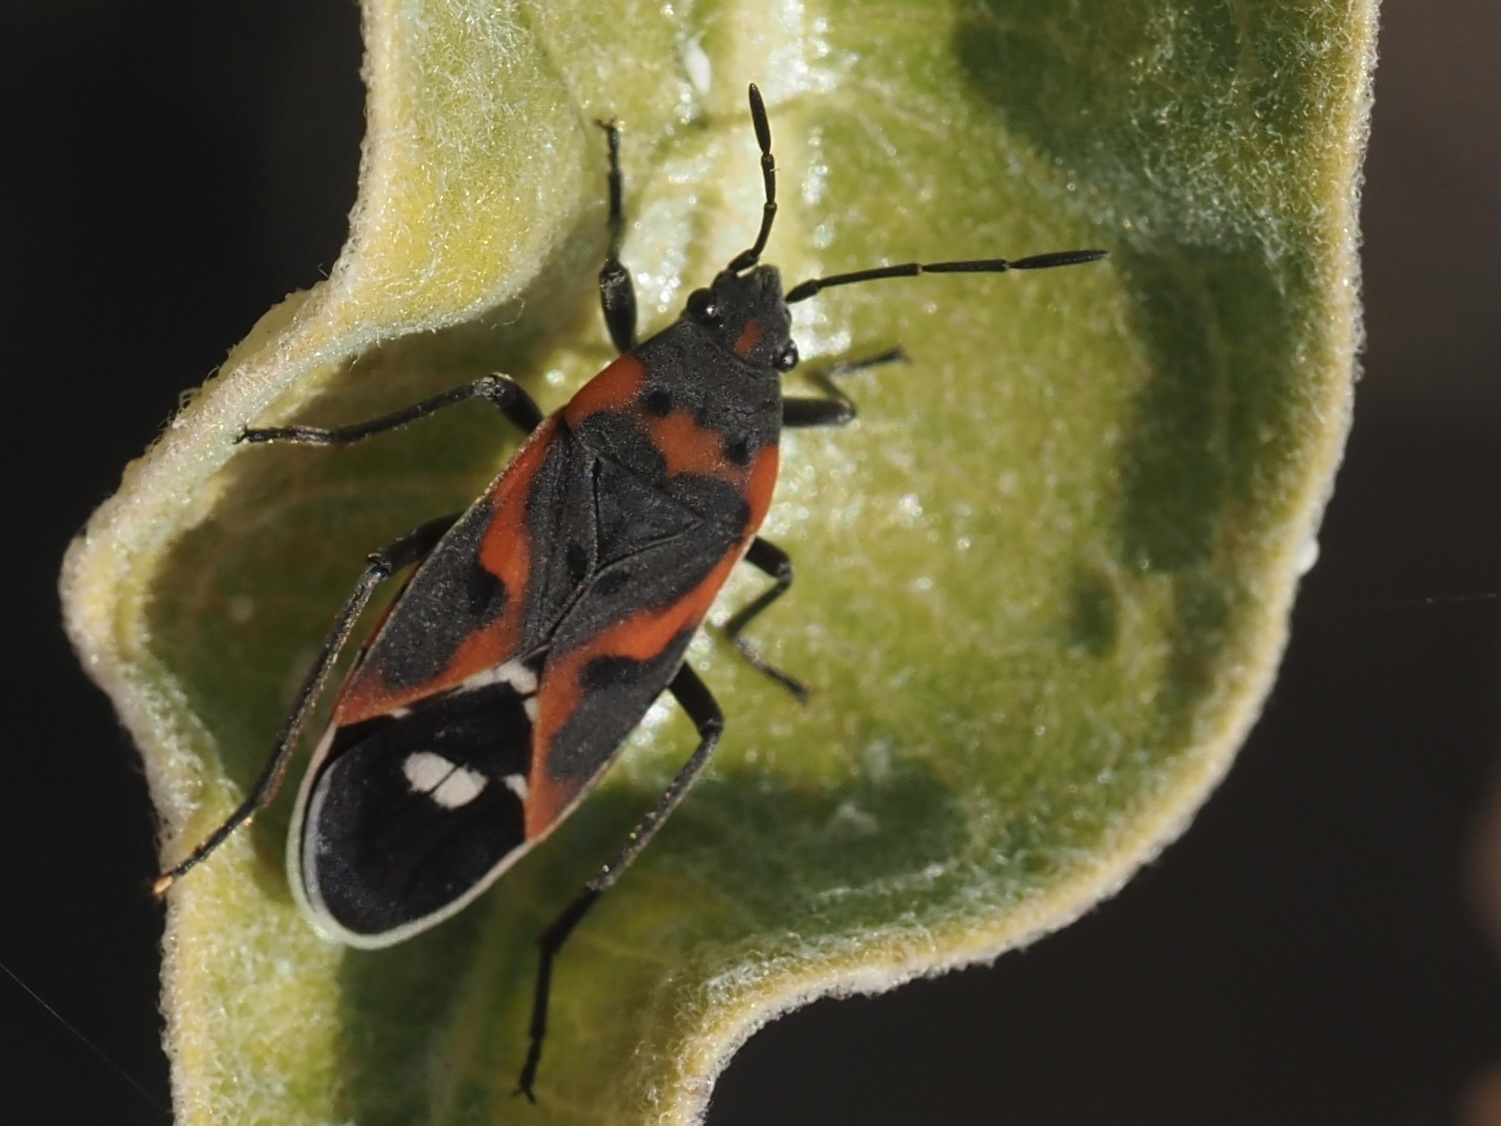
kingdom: Animalia
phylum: Arthropoda
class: Insecta
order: Hemiptera
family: Lygaeidae
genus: Lygaeus
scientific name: Lygaeus kalmii
